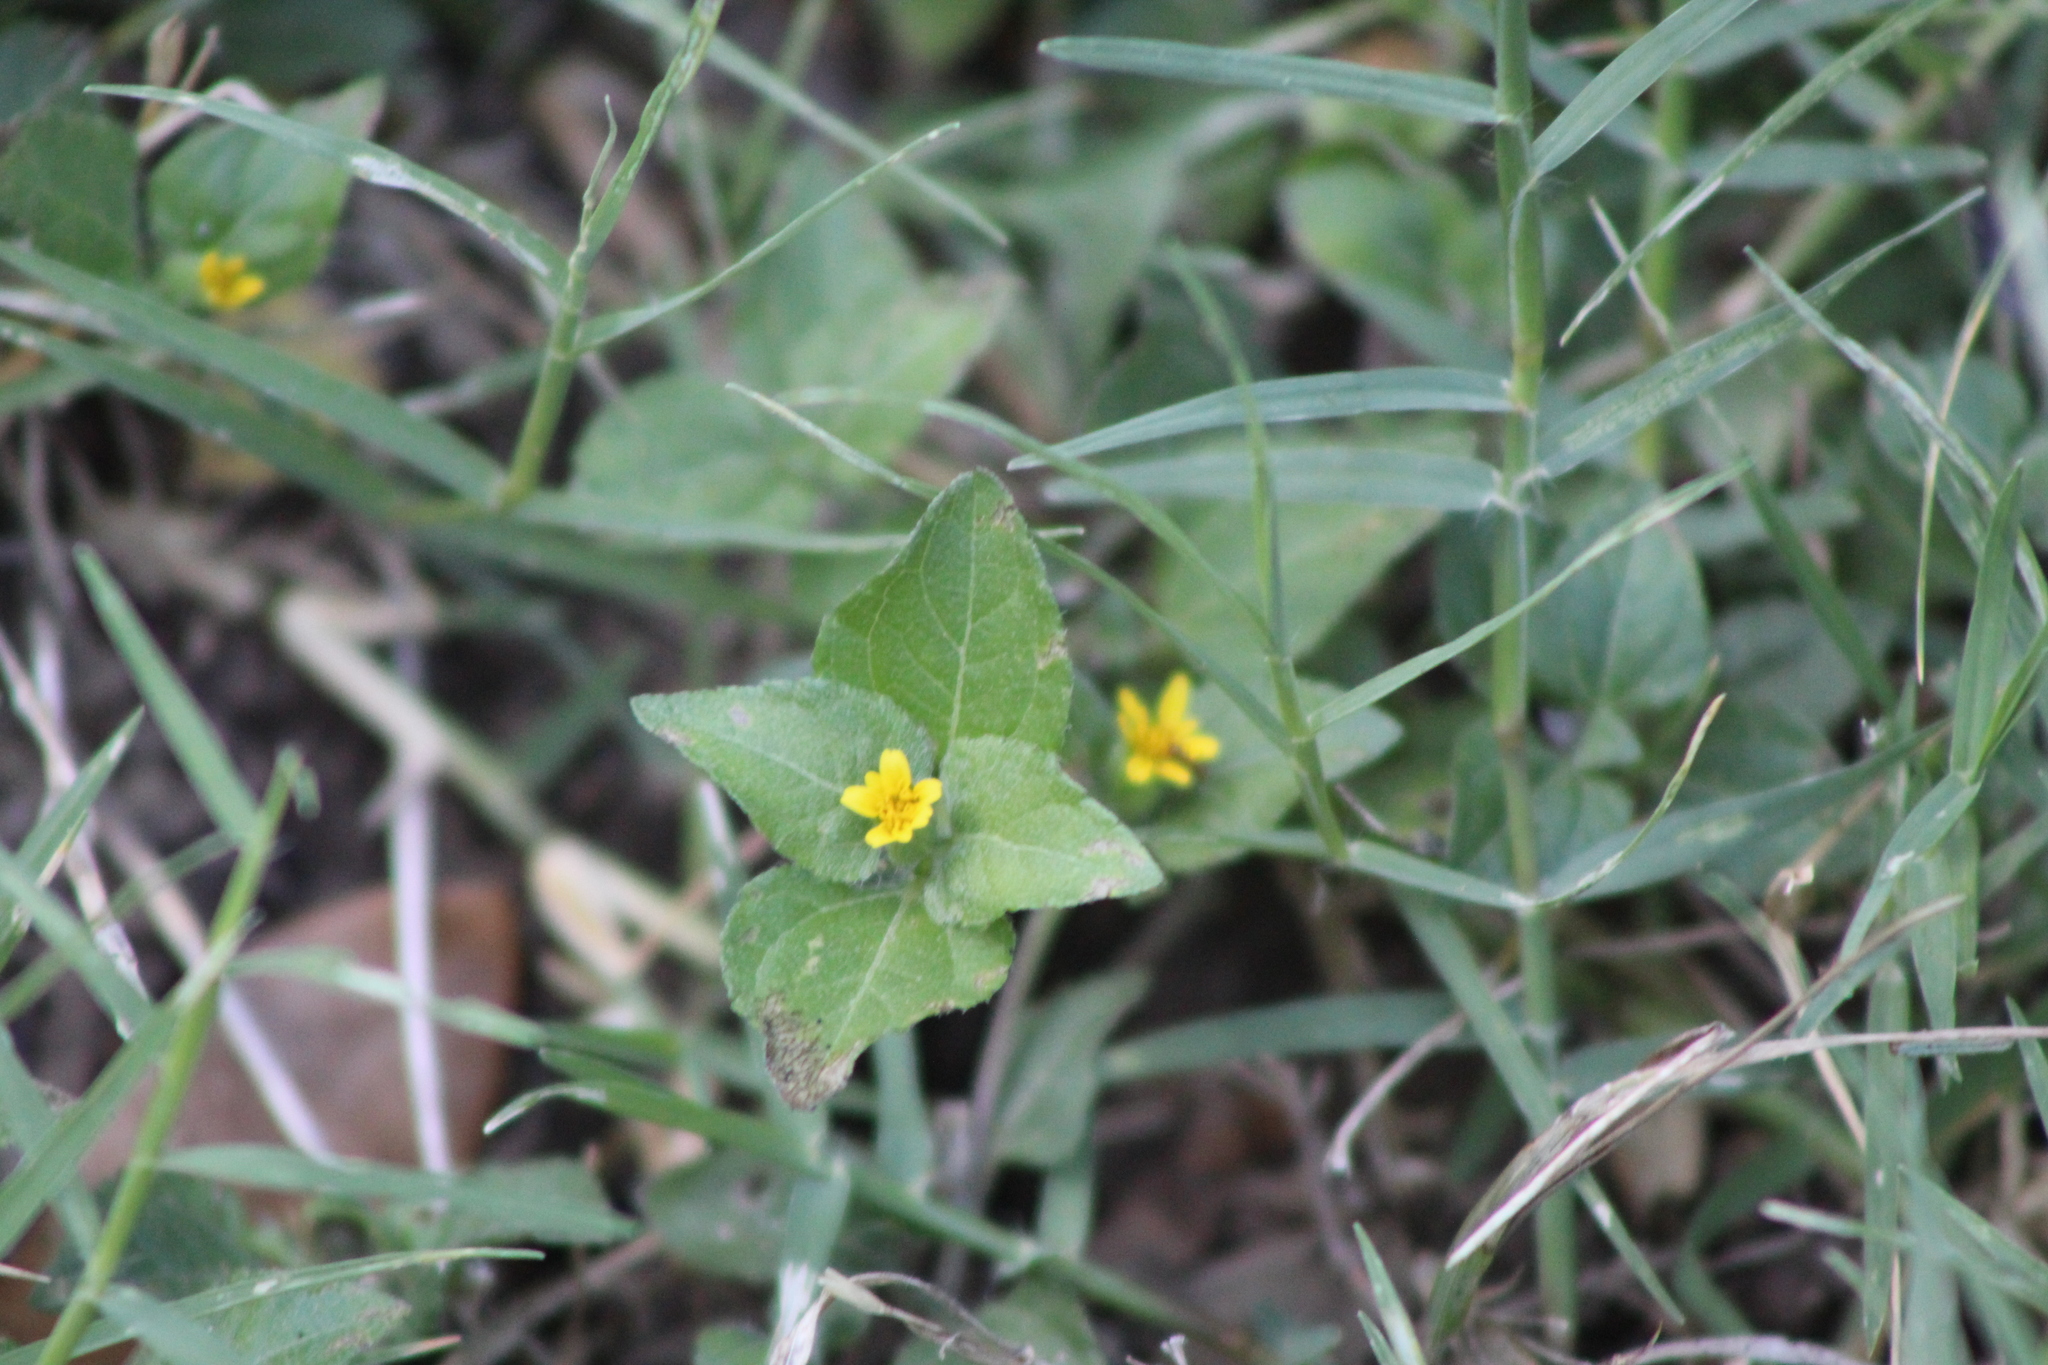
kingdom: Plantae
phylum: Tracheophyta
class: Magnoliopsida
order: Asterales
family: Asteraceae
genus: Calyptocarpus
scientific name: Calyptocarpus vialis
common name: Straggler daisy
